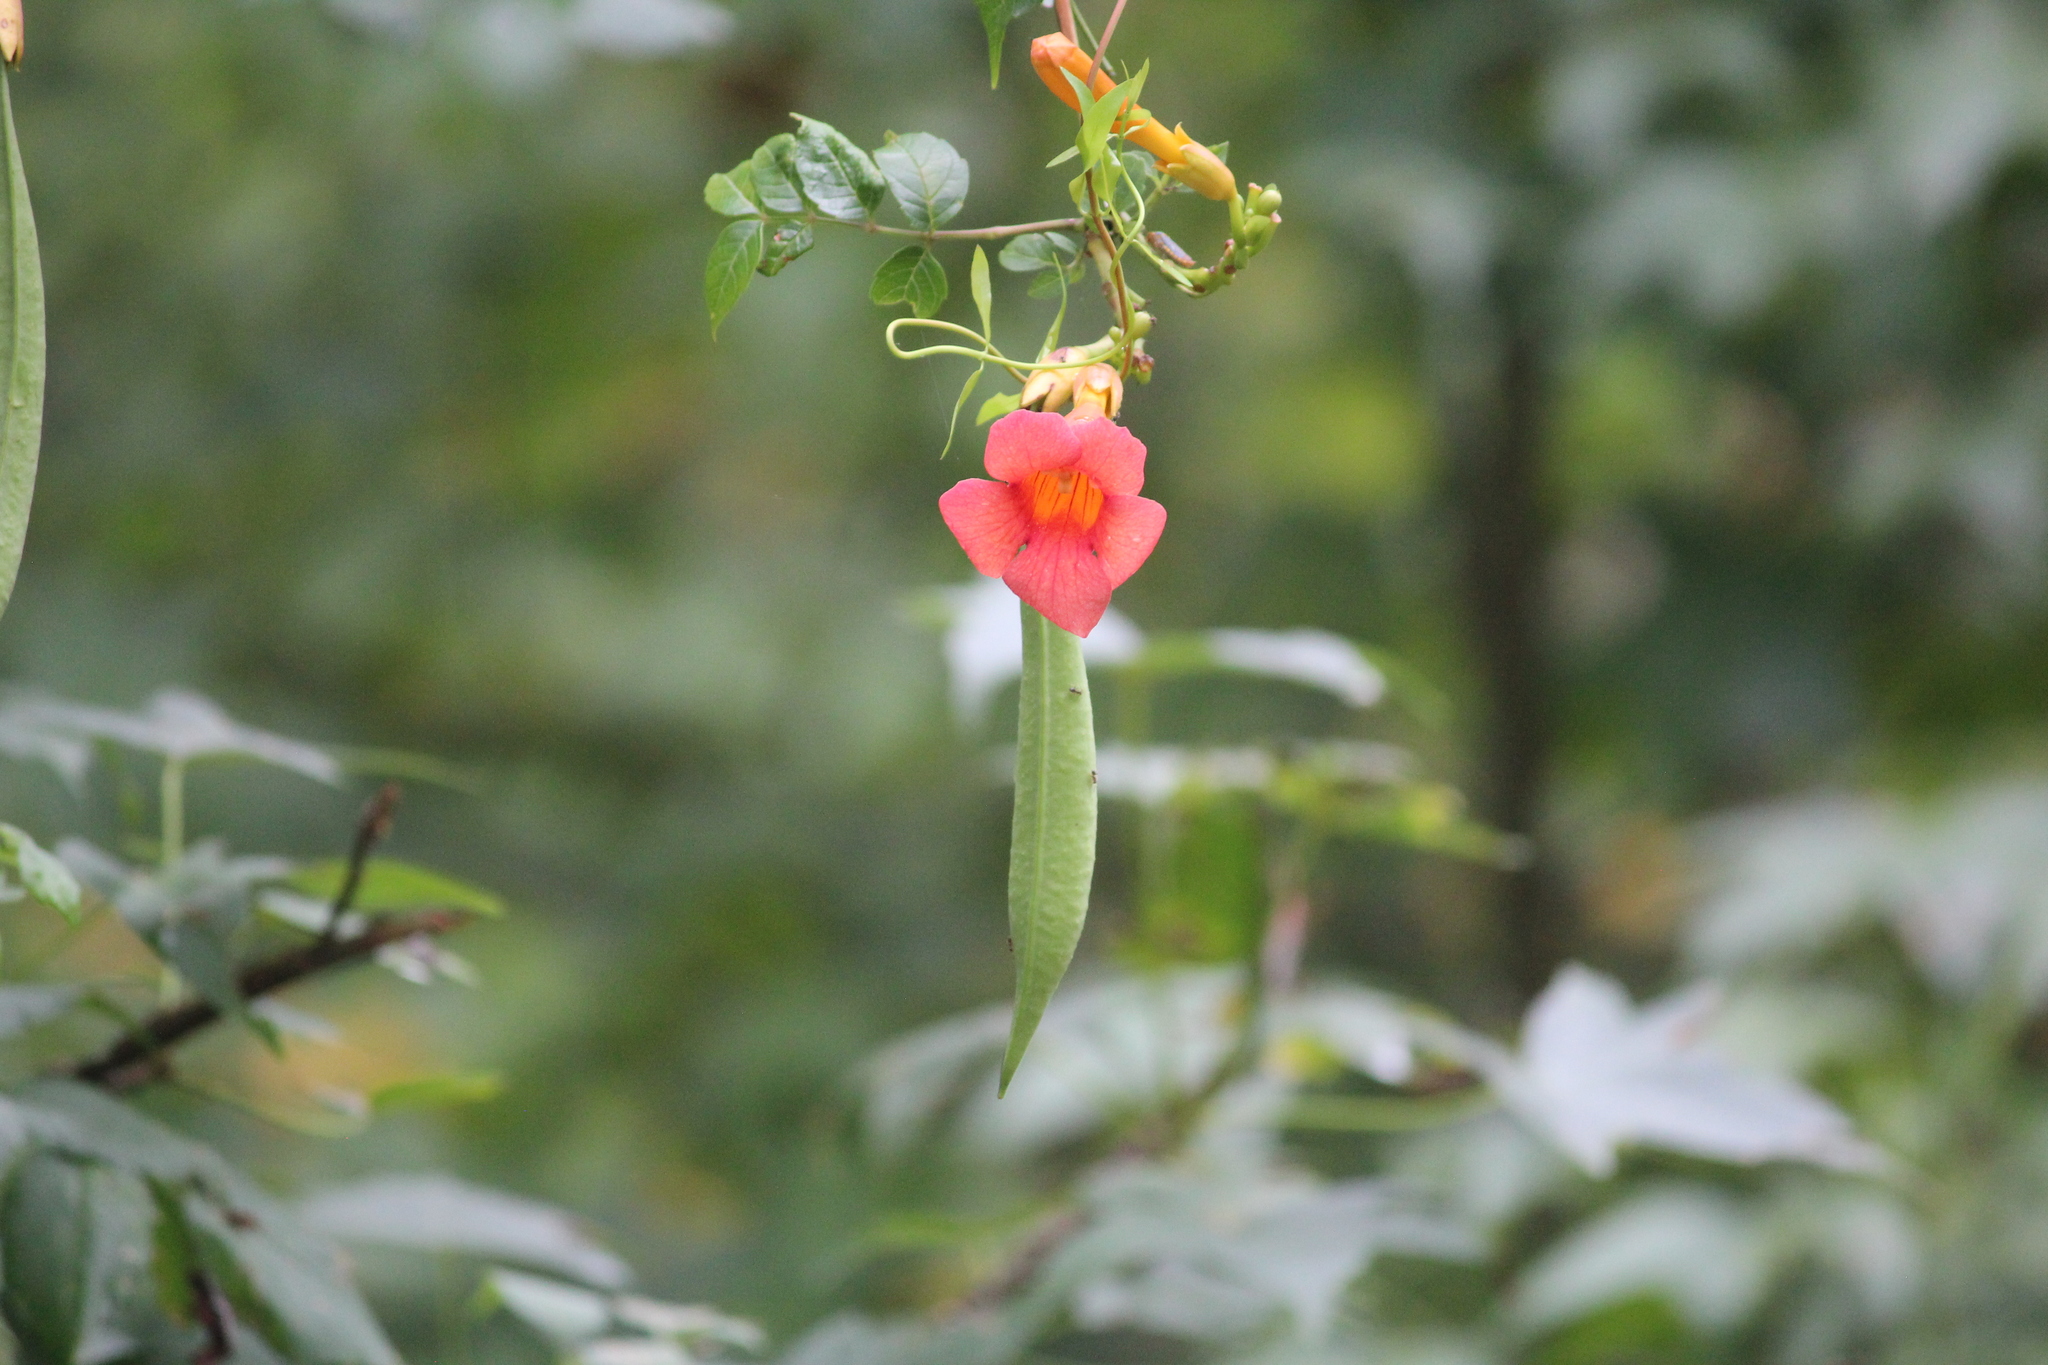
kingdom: Plantae
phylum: Tracheophyta
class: Magnoliopsida
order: Lamiales
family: Bignoniaceae
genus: Campsis
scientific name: Campsis radicans
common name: Trumpet-creeper
